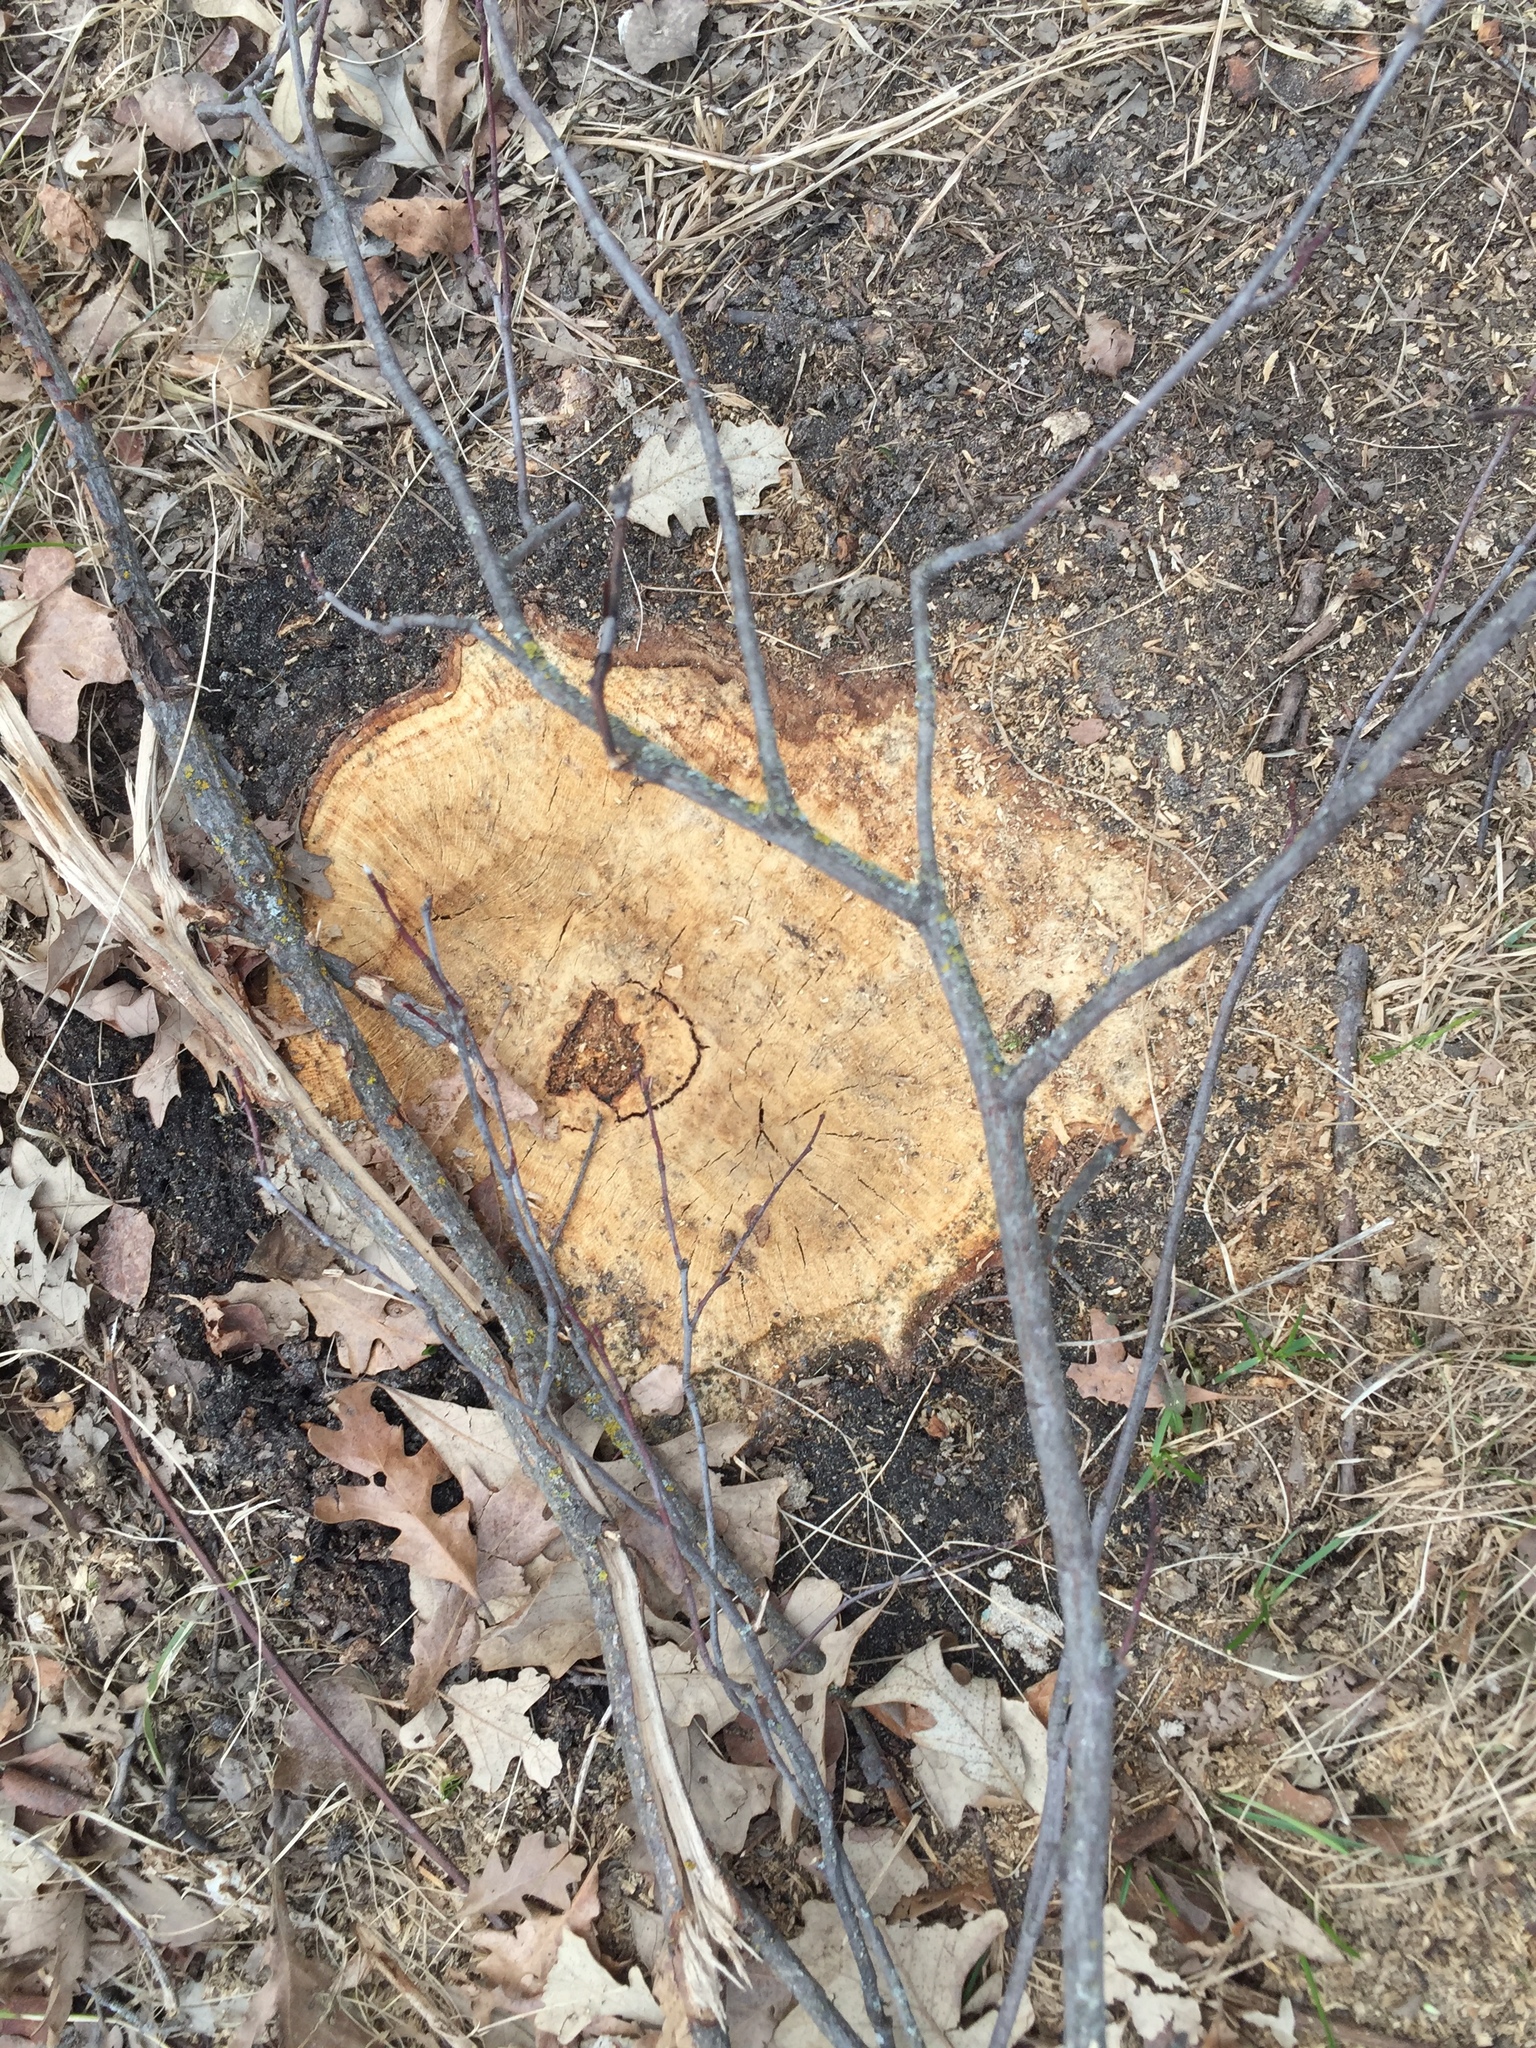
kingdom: Plantae
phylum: Tracheophyta
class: Magnoliopsida
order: Fagales
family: Fagaceae
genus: Quercus
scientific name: Quercus macrocarpa
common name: Bur oak
